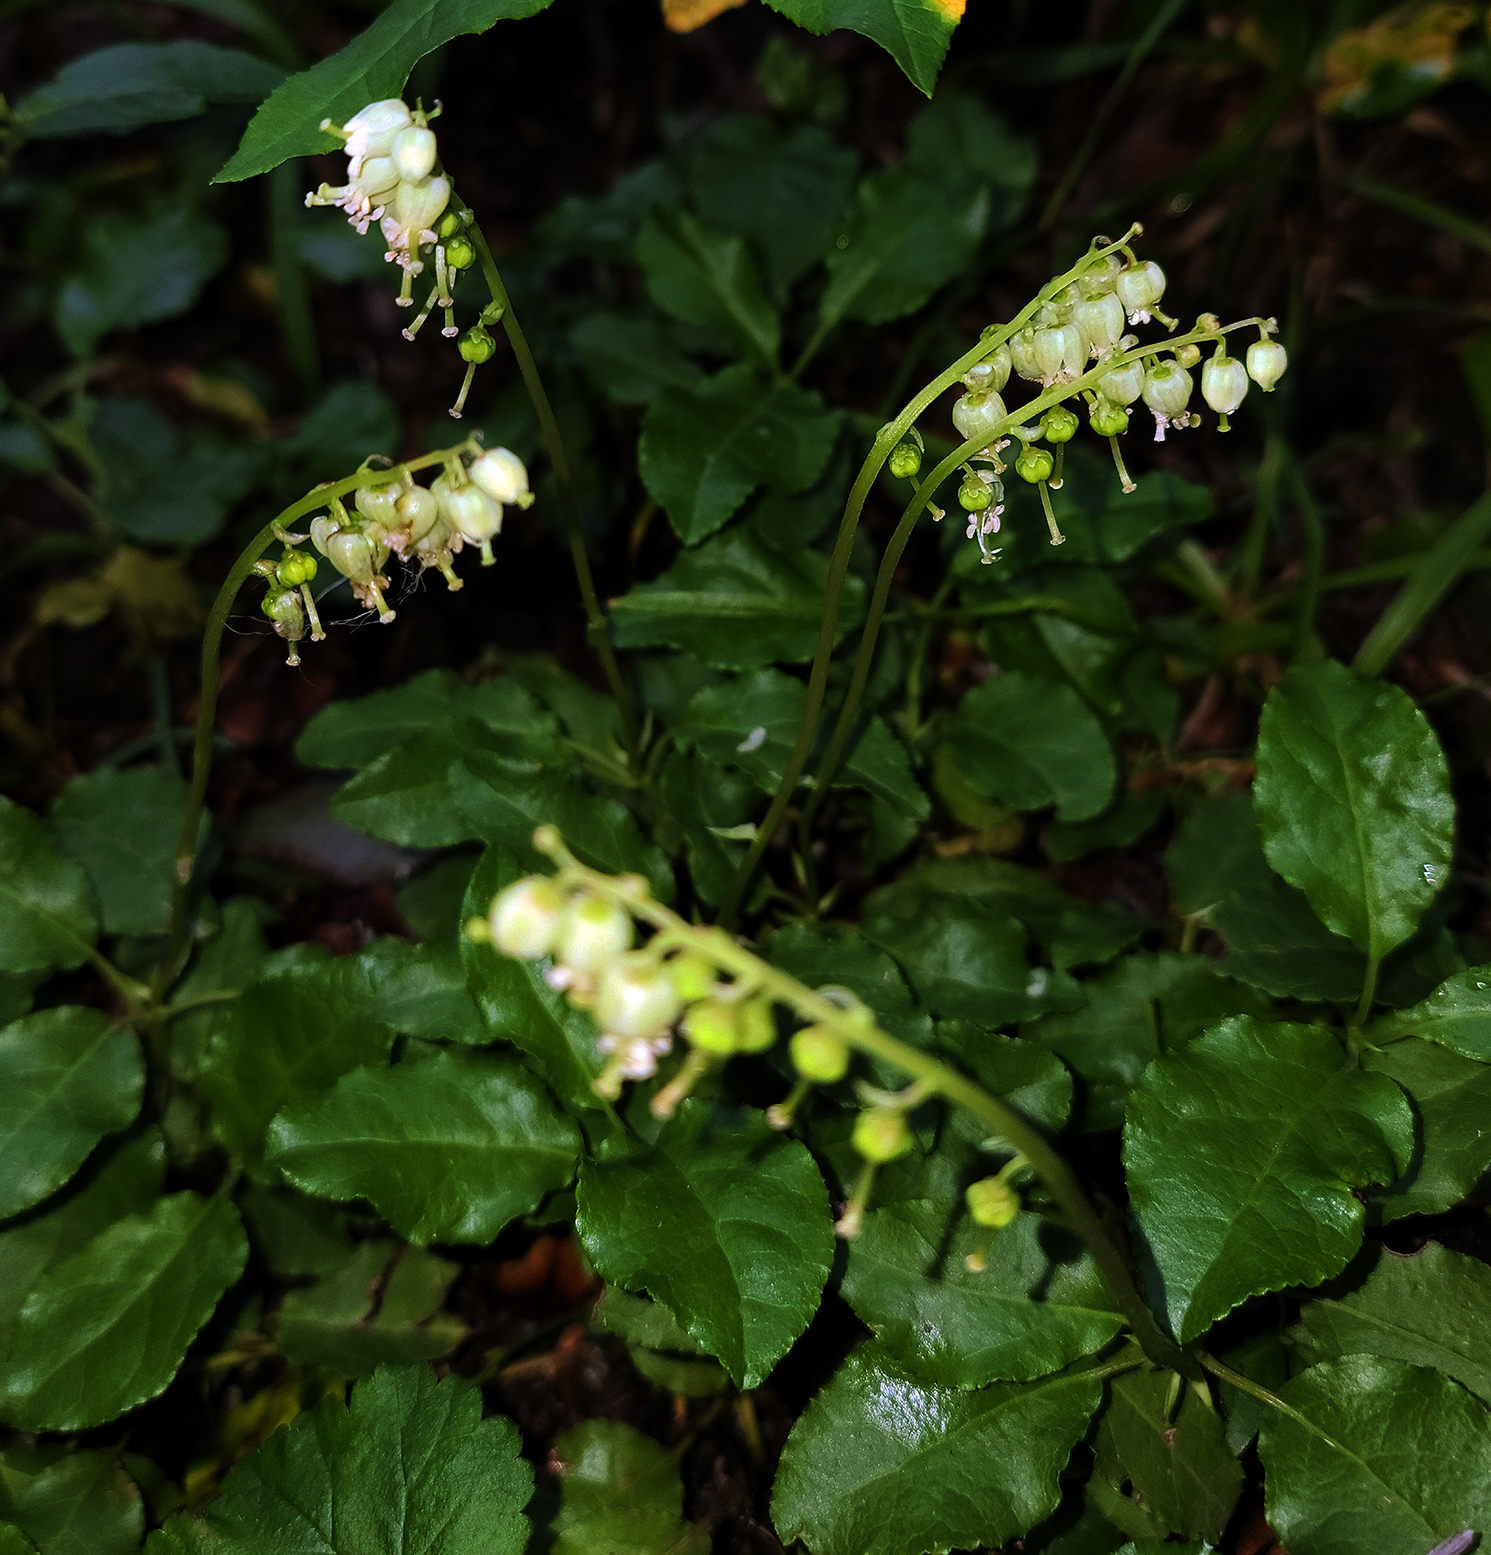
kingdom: Plantae
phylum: Tracheophyta
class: Magnoliopsida
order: Ericales
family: Ericaceae
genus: Orthilia
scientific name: Orthilia secunda
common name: One-sided orthilia
